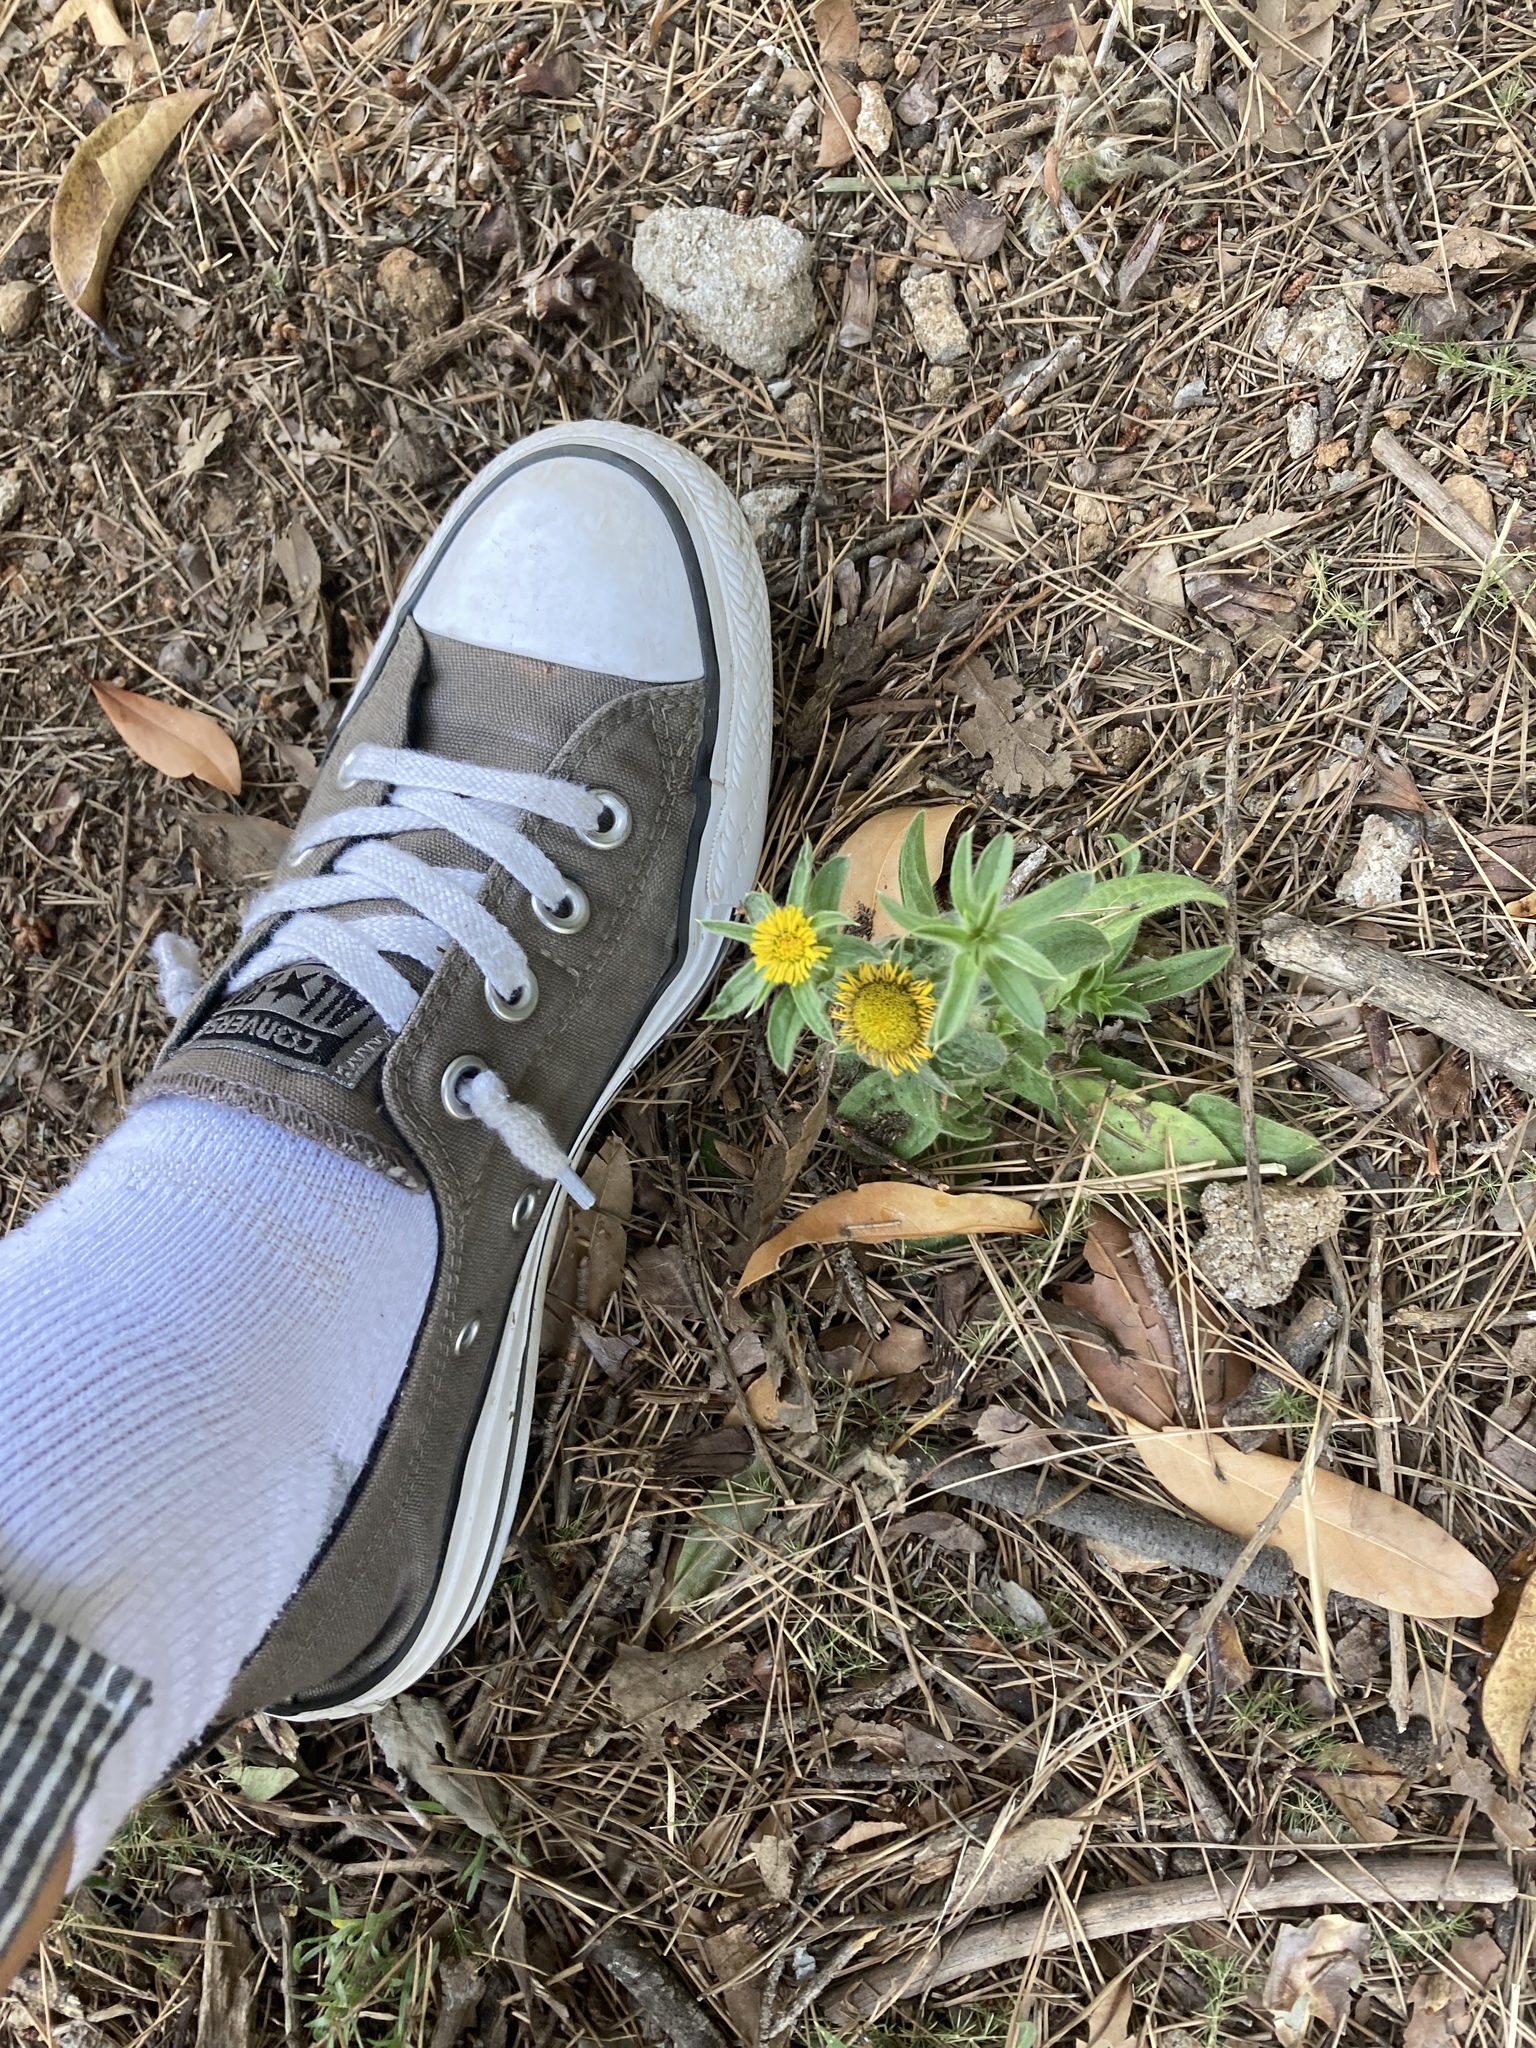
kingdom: Plantae
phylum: Tracheophyta
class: Magnoliopsida
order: Asterales
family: Asteraceae
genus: Pallenis
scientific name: Pallenis spinosa
